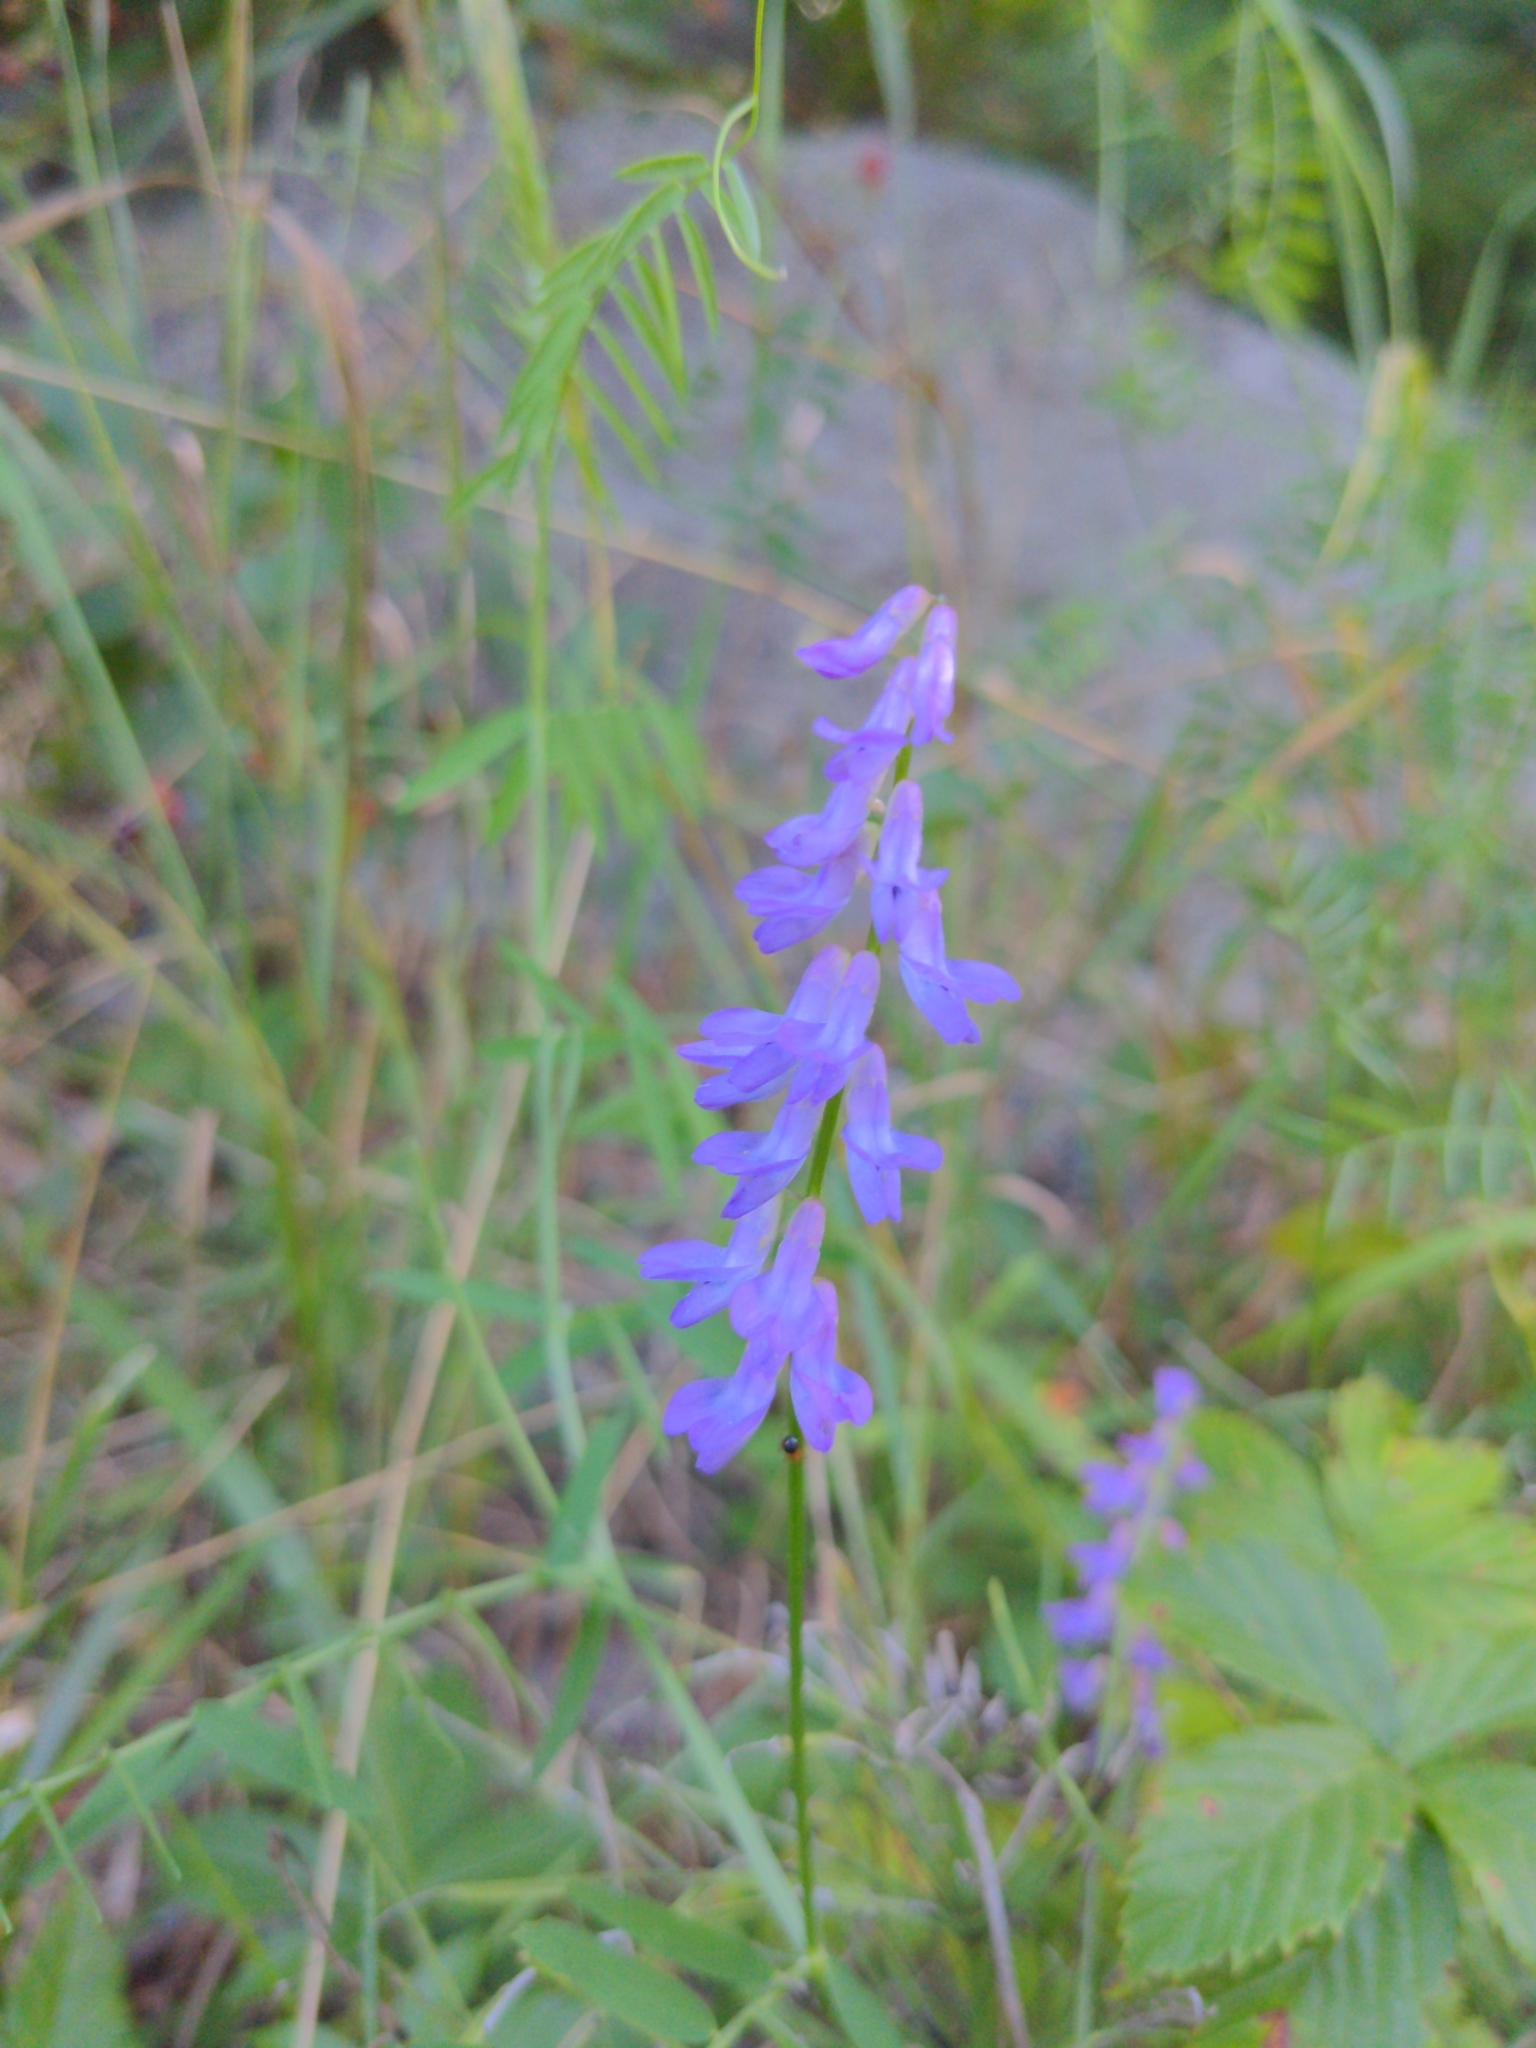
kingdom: Plantae
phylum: Tracheophyta
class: Magnoliopsida
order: Fabales
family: Fabaceae
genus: Vicia
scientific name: Vicia cracca
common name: Bird vetch
